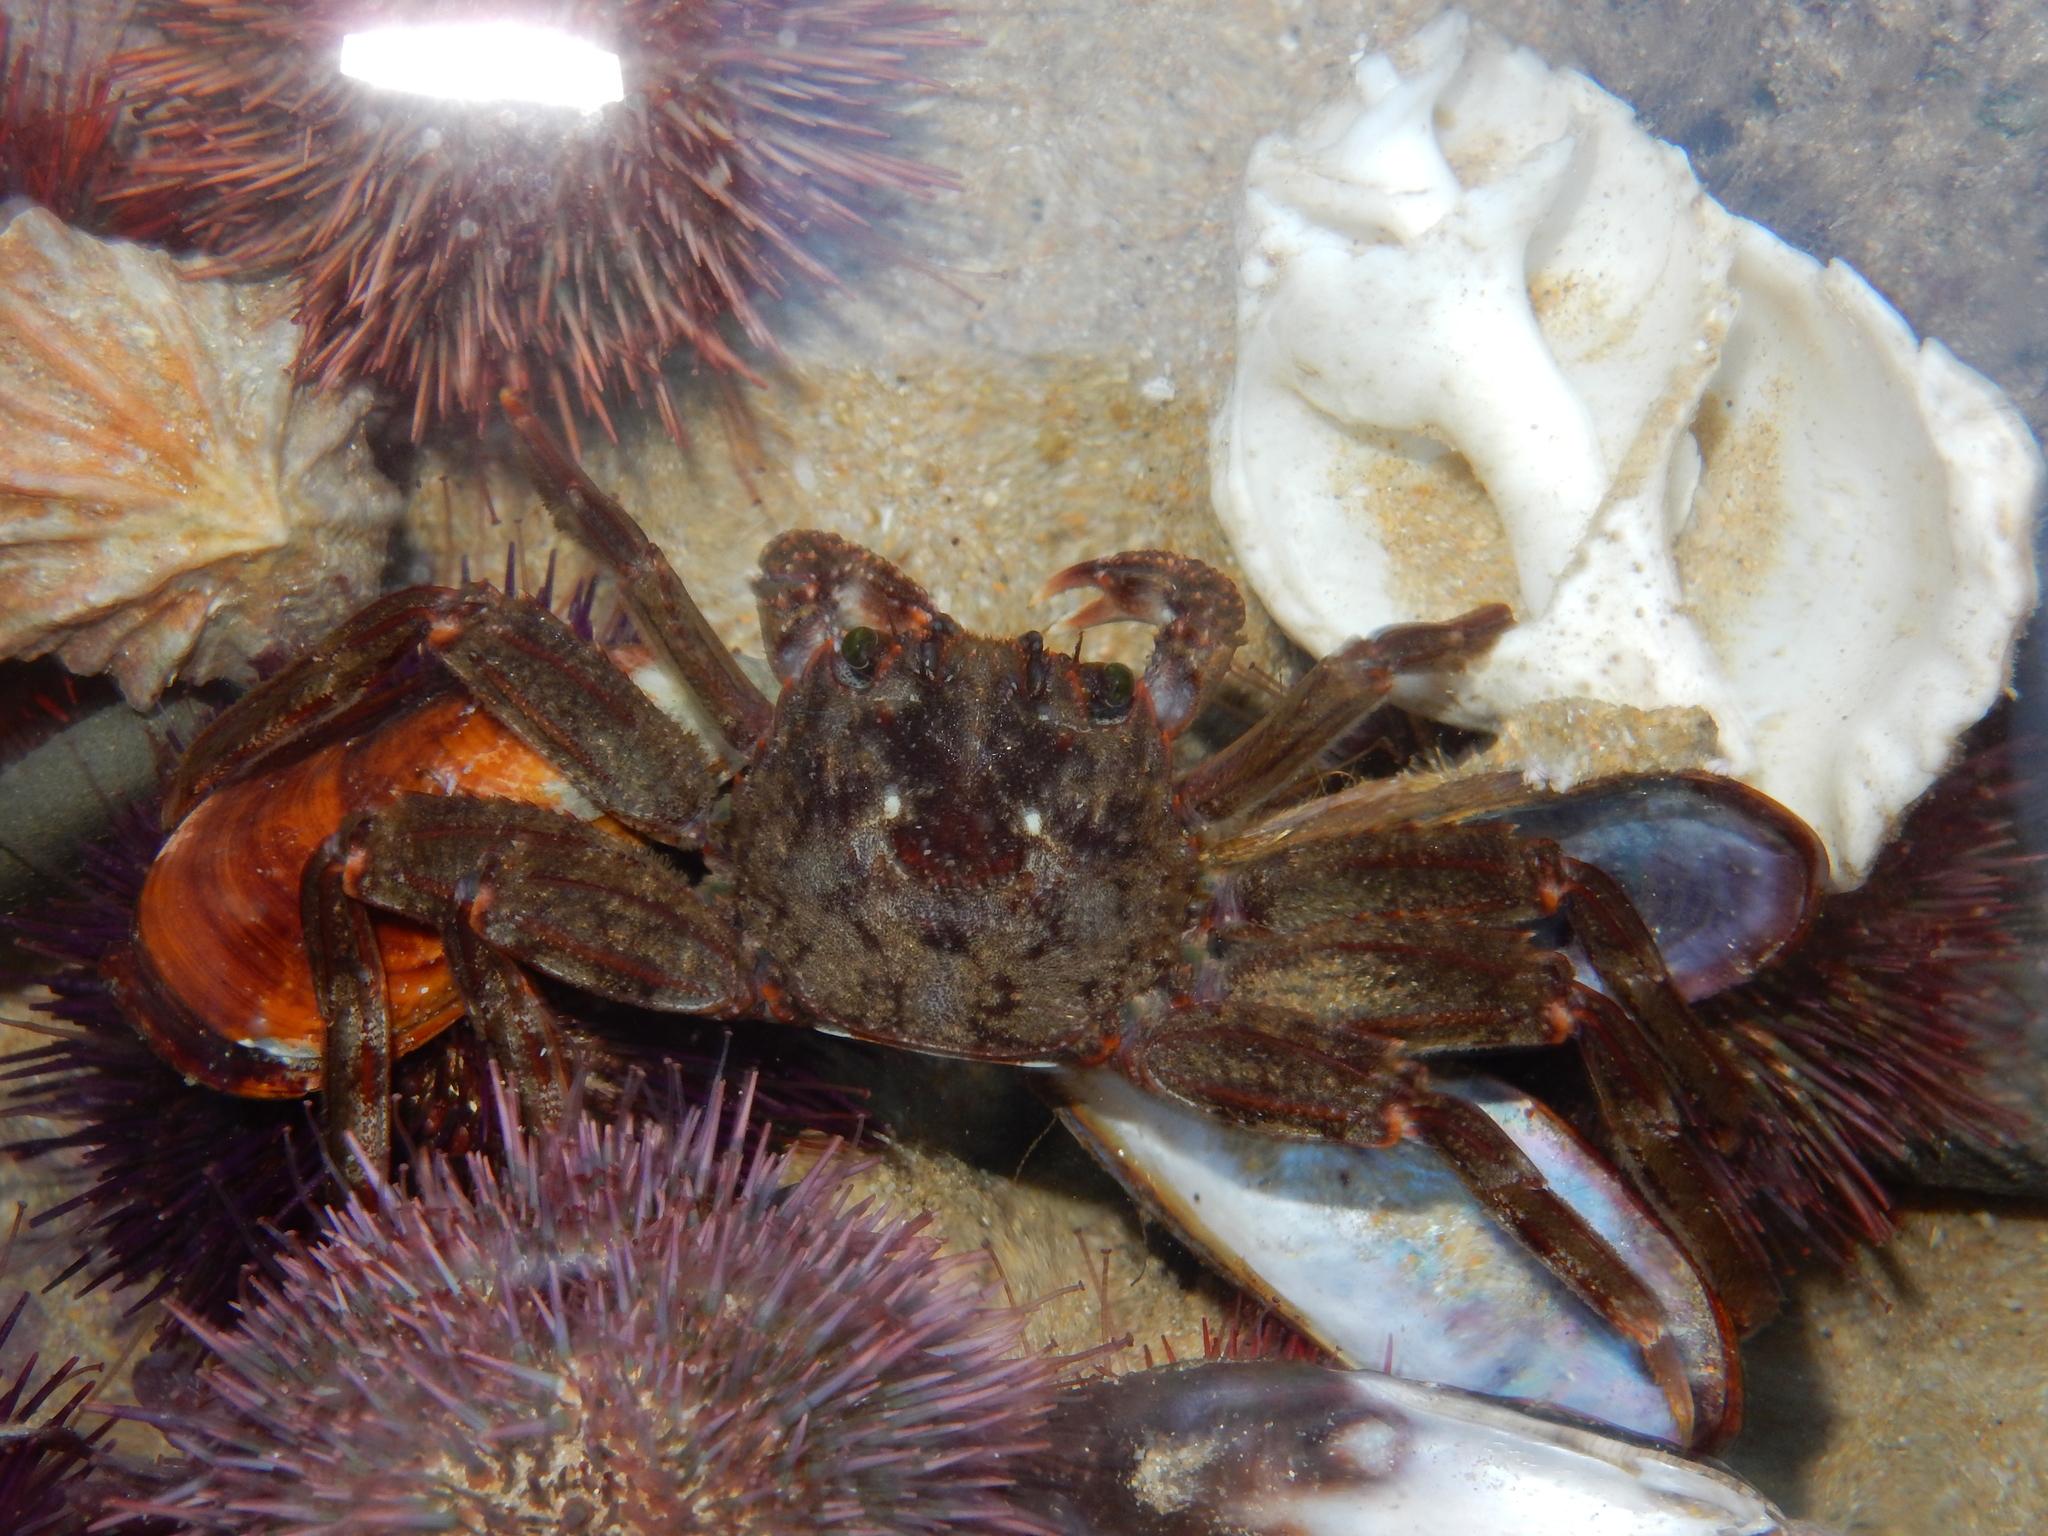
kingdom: Animalia
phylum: Arthropoda
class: Malacostraca
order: Decapoda
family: Plagusiidae
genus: Guinusia
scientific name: Guinusia chabrus
